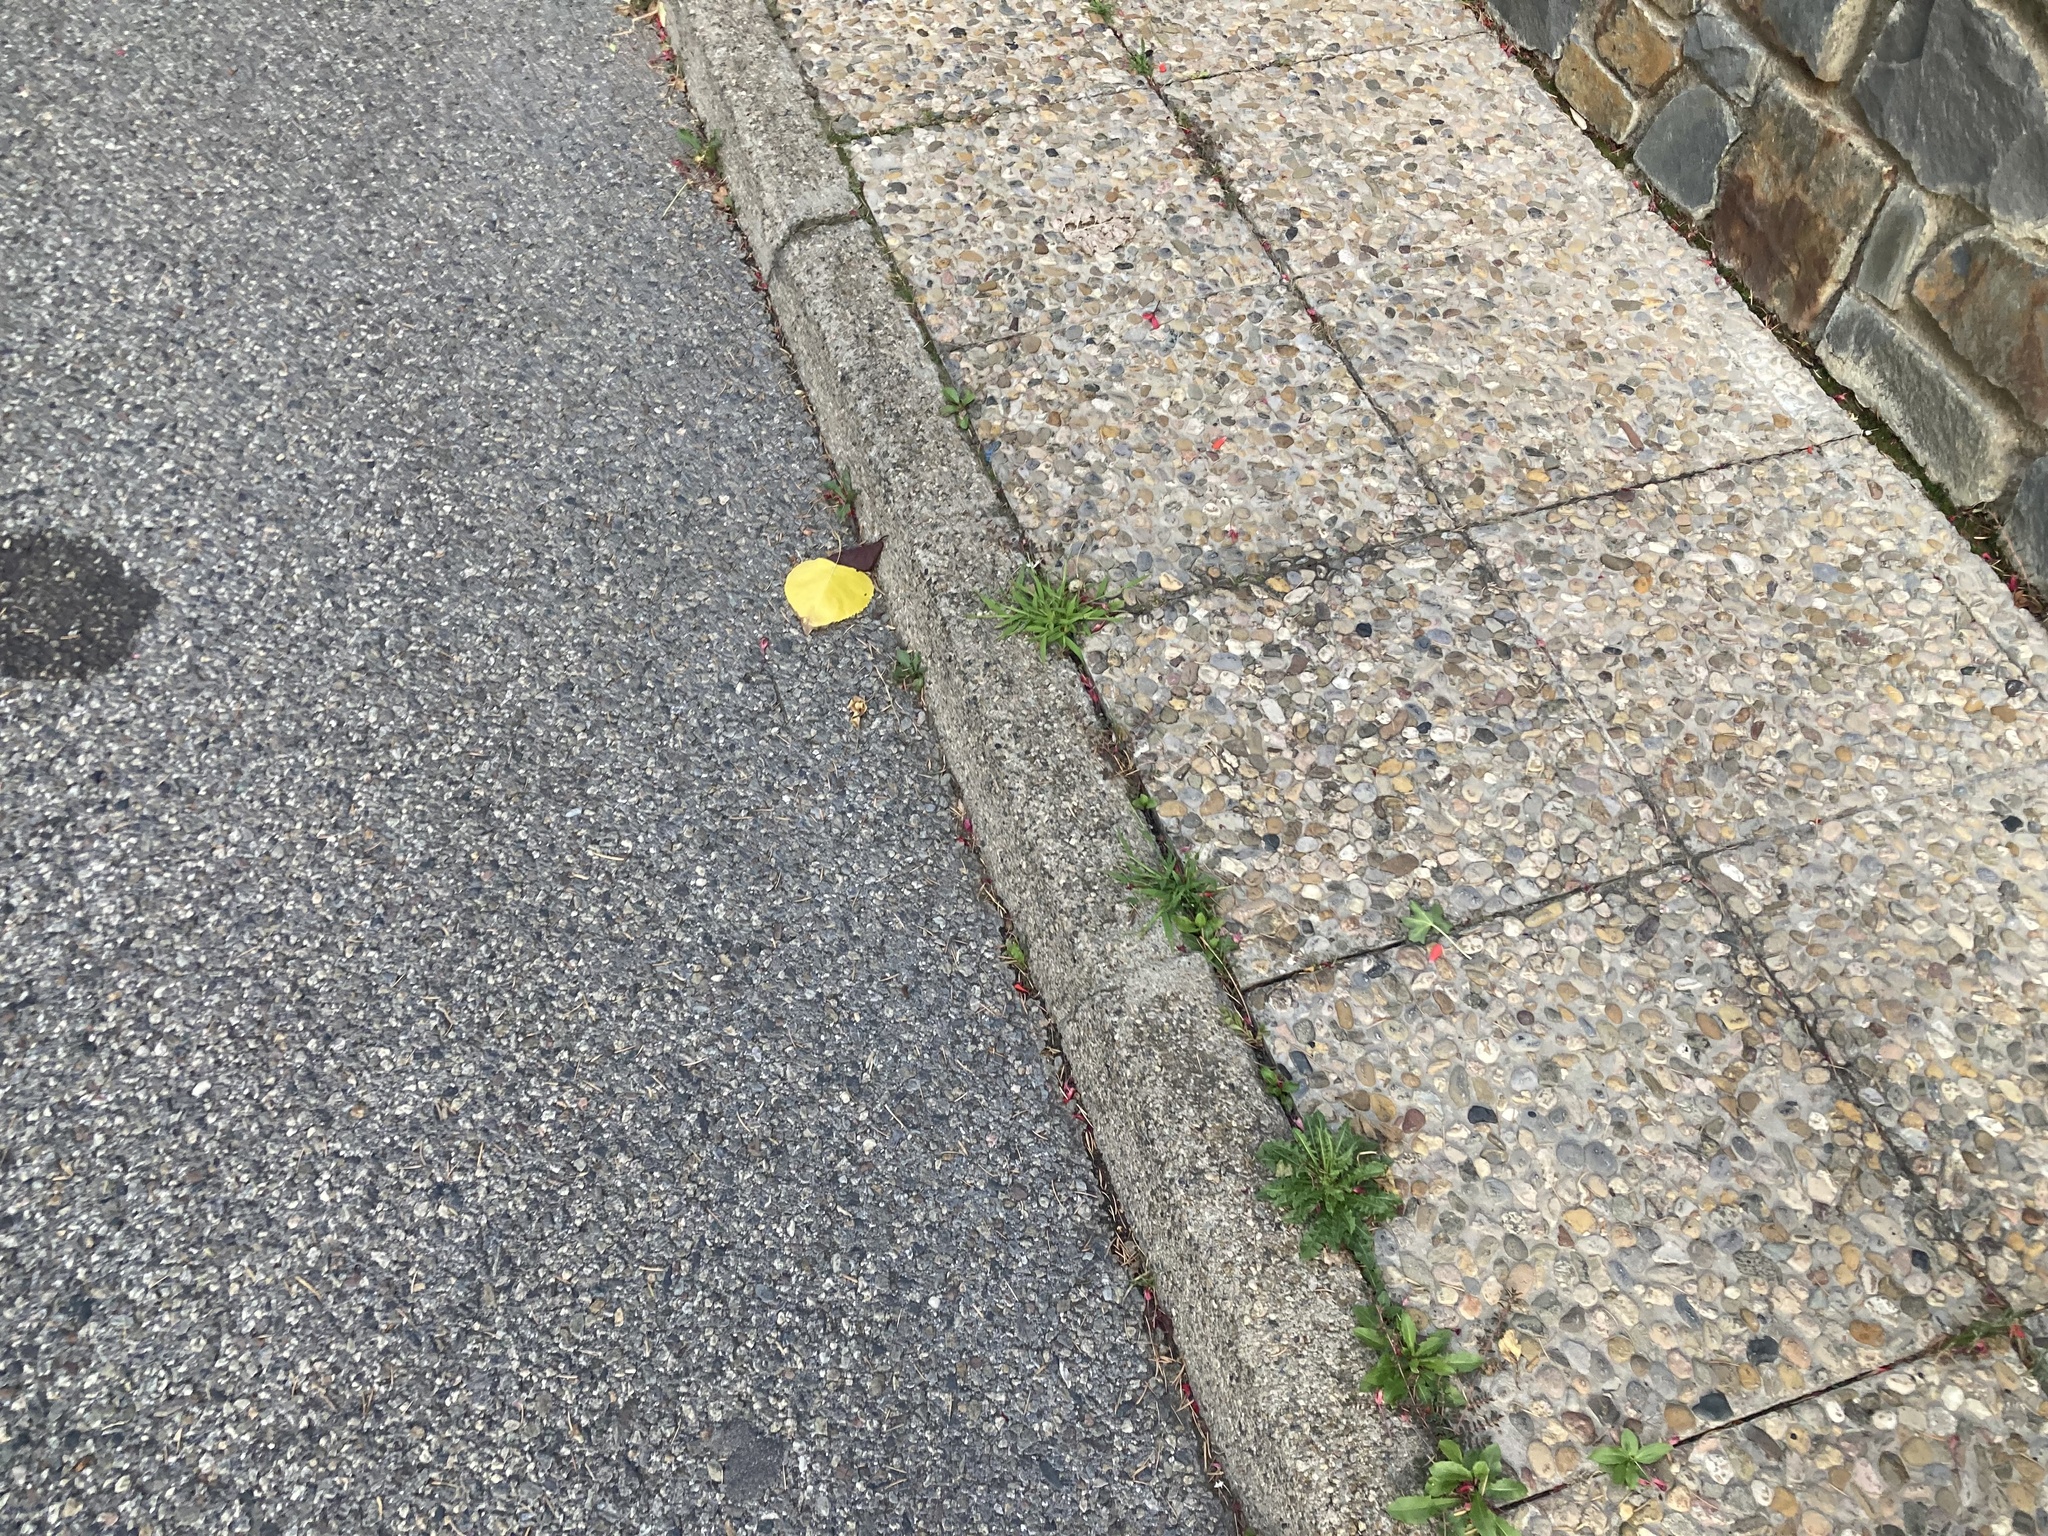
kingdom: Plantae
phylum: Tracheophyta
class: Magnoliopsida
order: Malpighiales
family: Euphorbiaceae
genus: Euphorbia
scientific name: Euphorbia maculata
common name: Spotted spurge
